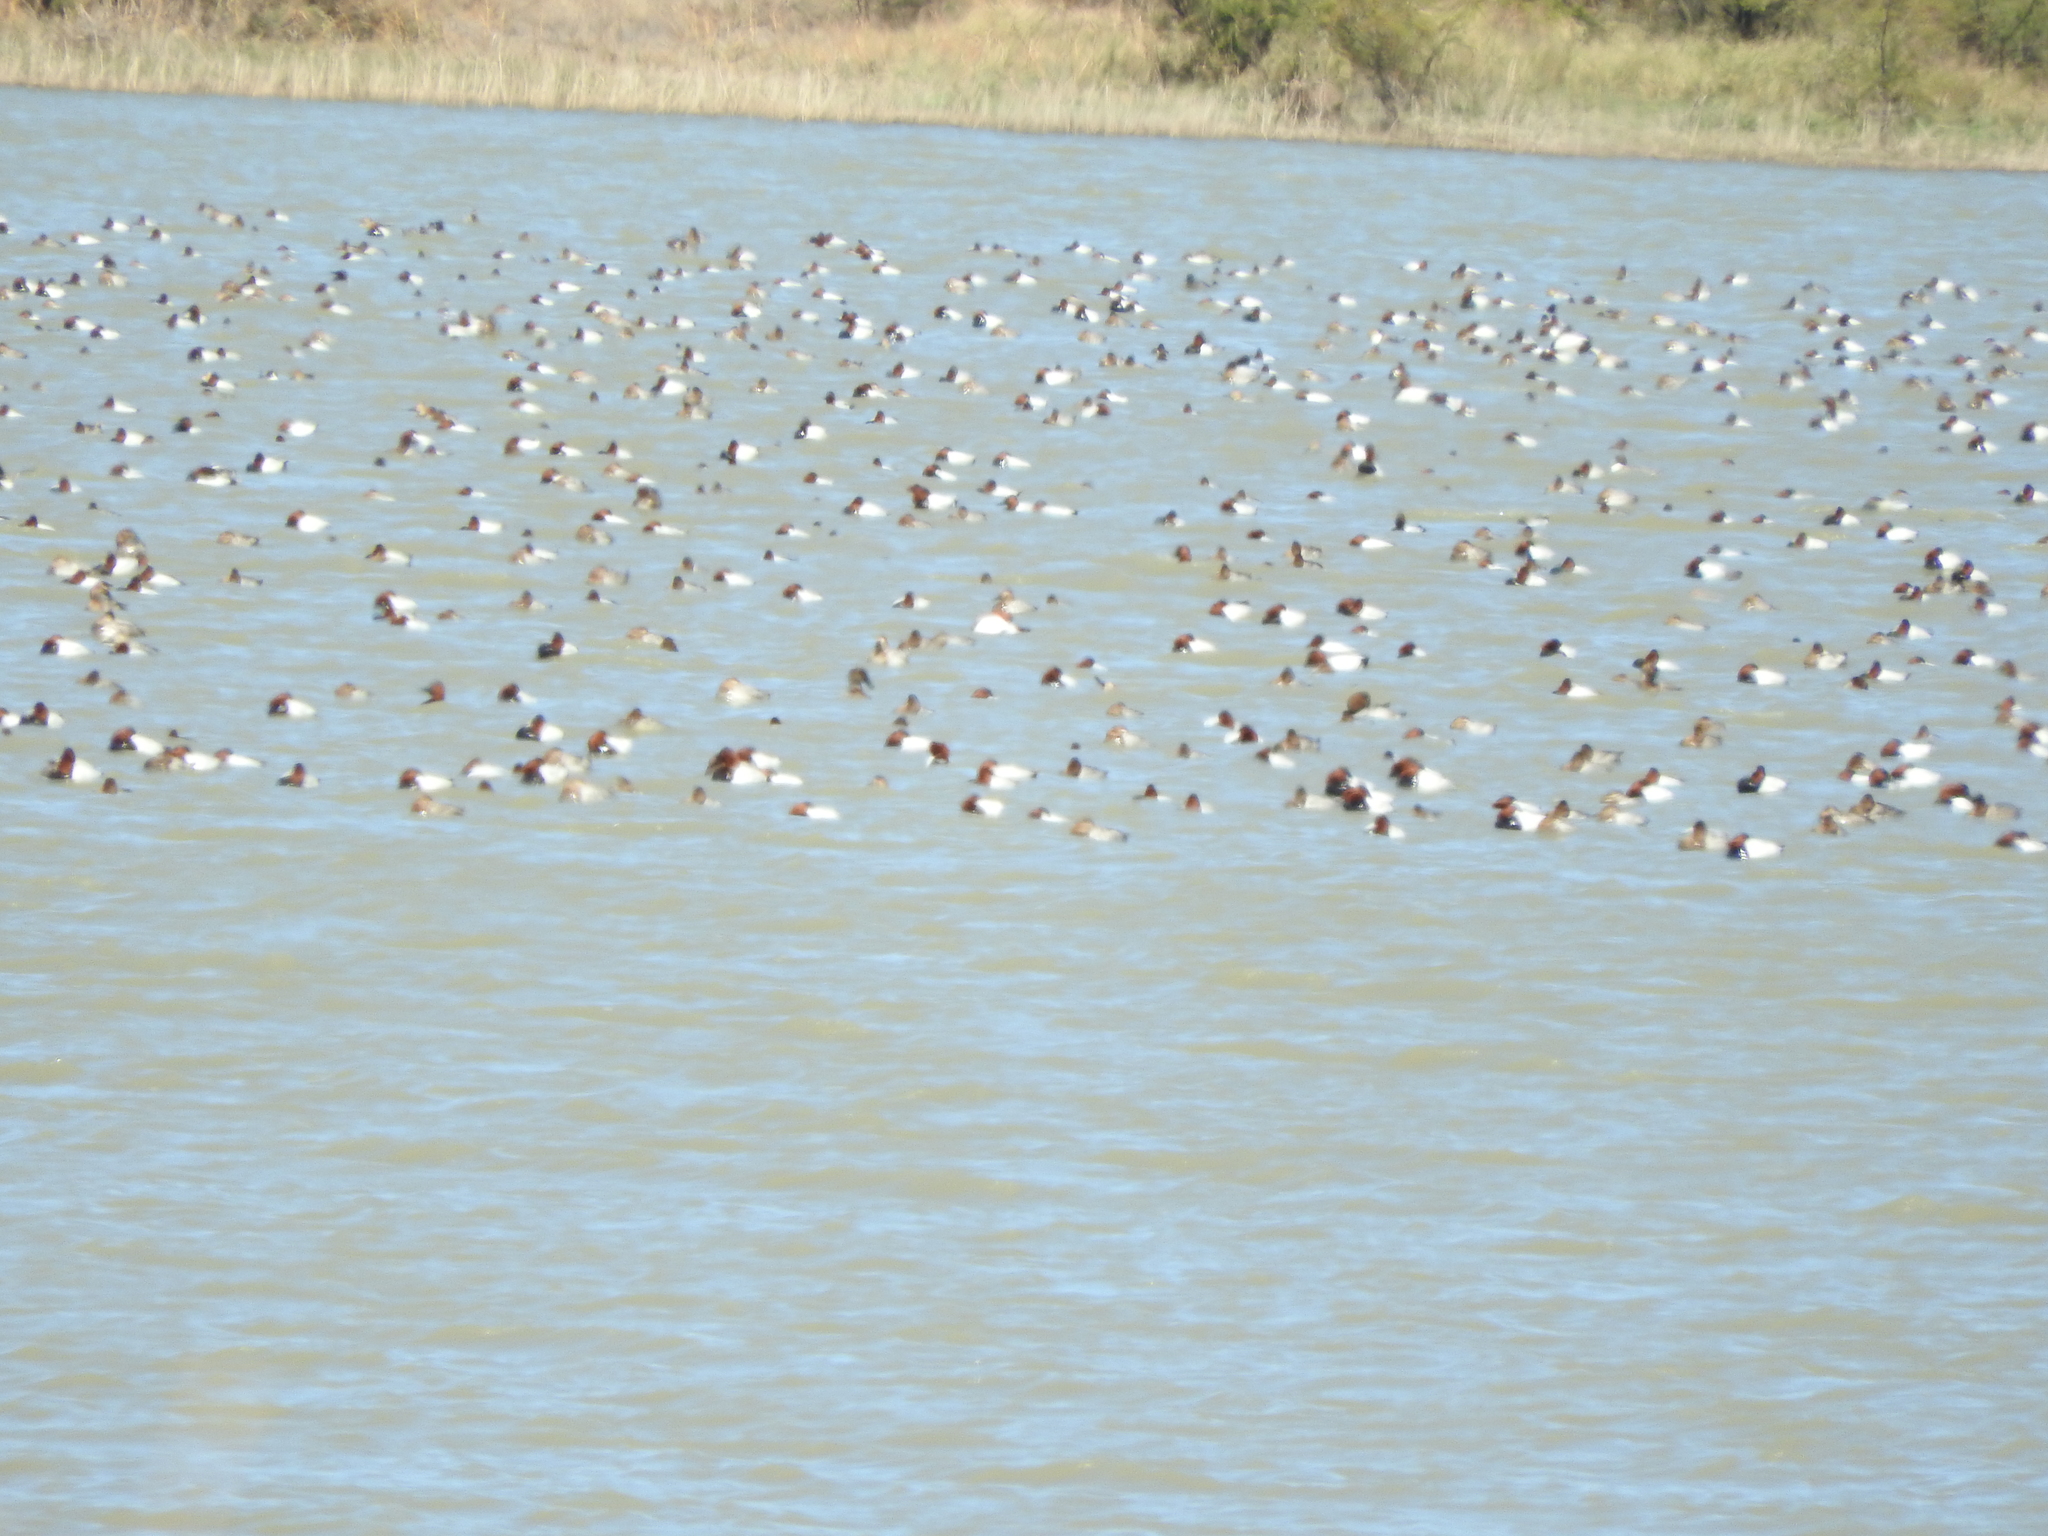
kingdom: Animalia
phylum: Chordata
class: Aves
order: Anseriformes
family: Anatidae
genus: Aythya
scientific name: Aythya valisineria
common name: Canvasback
